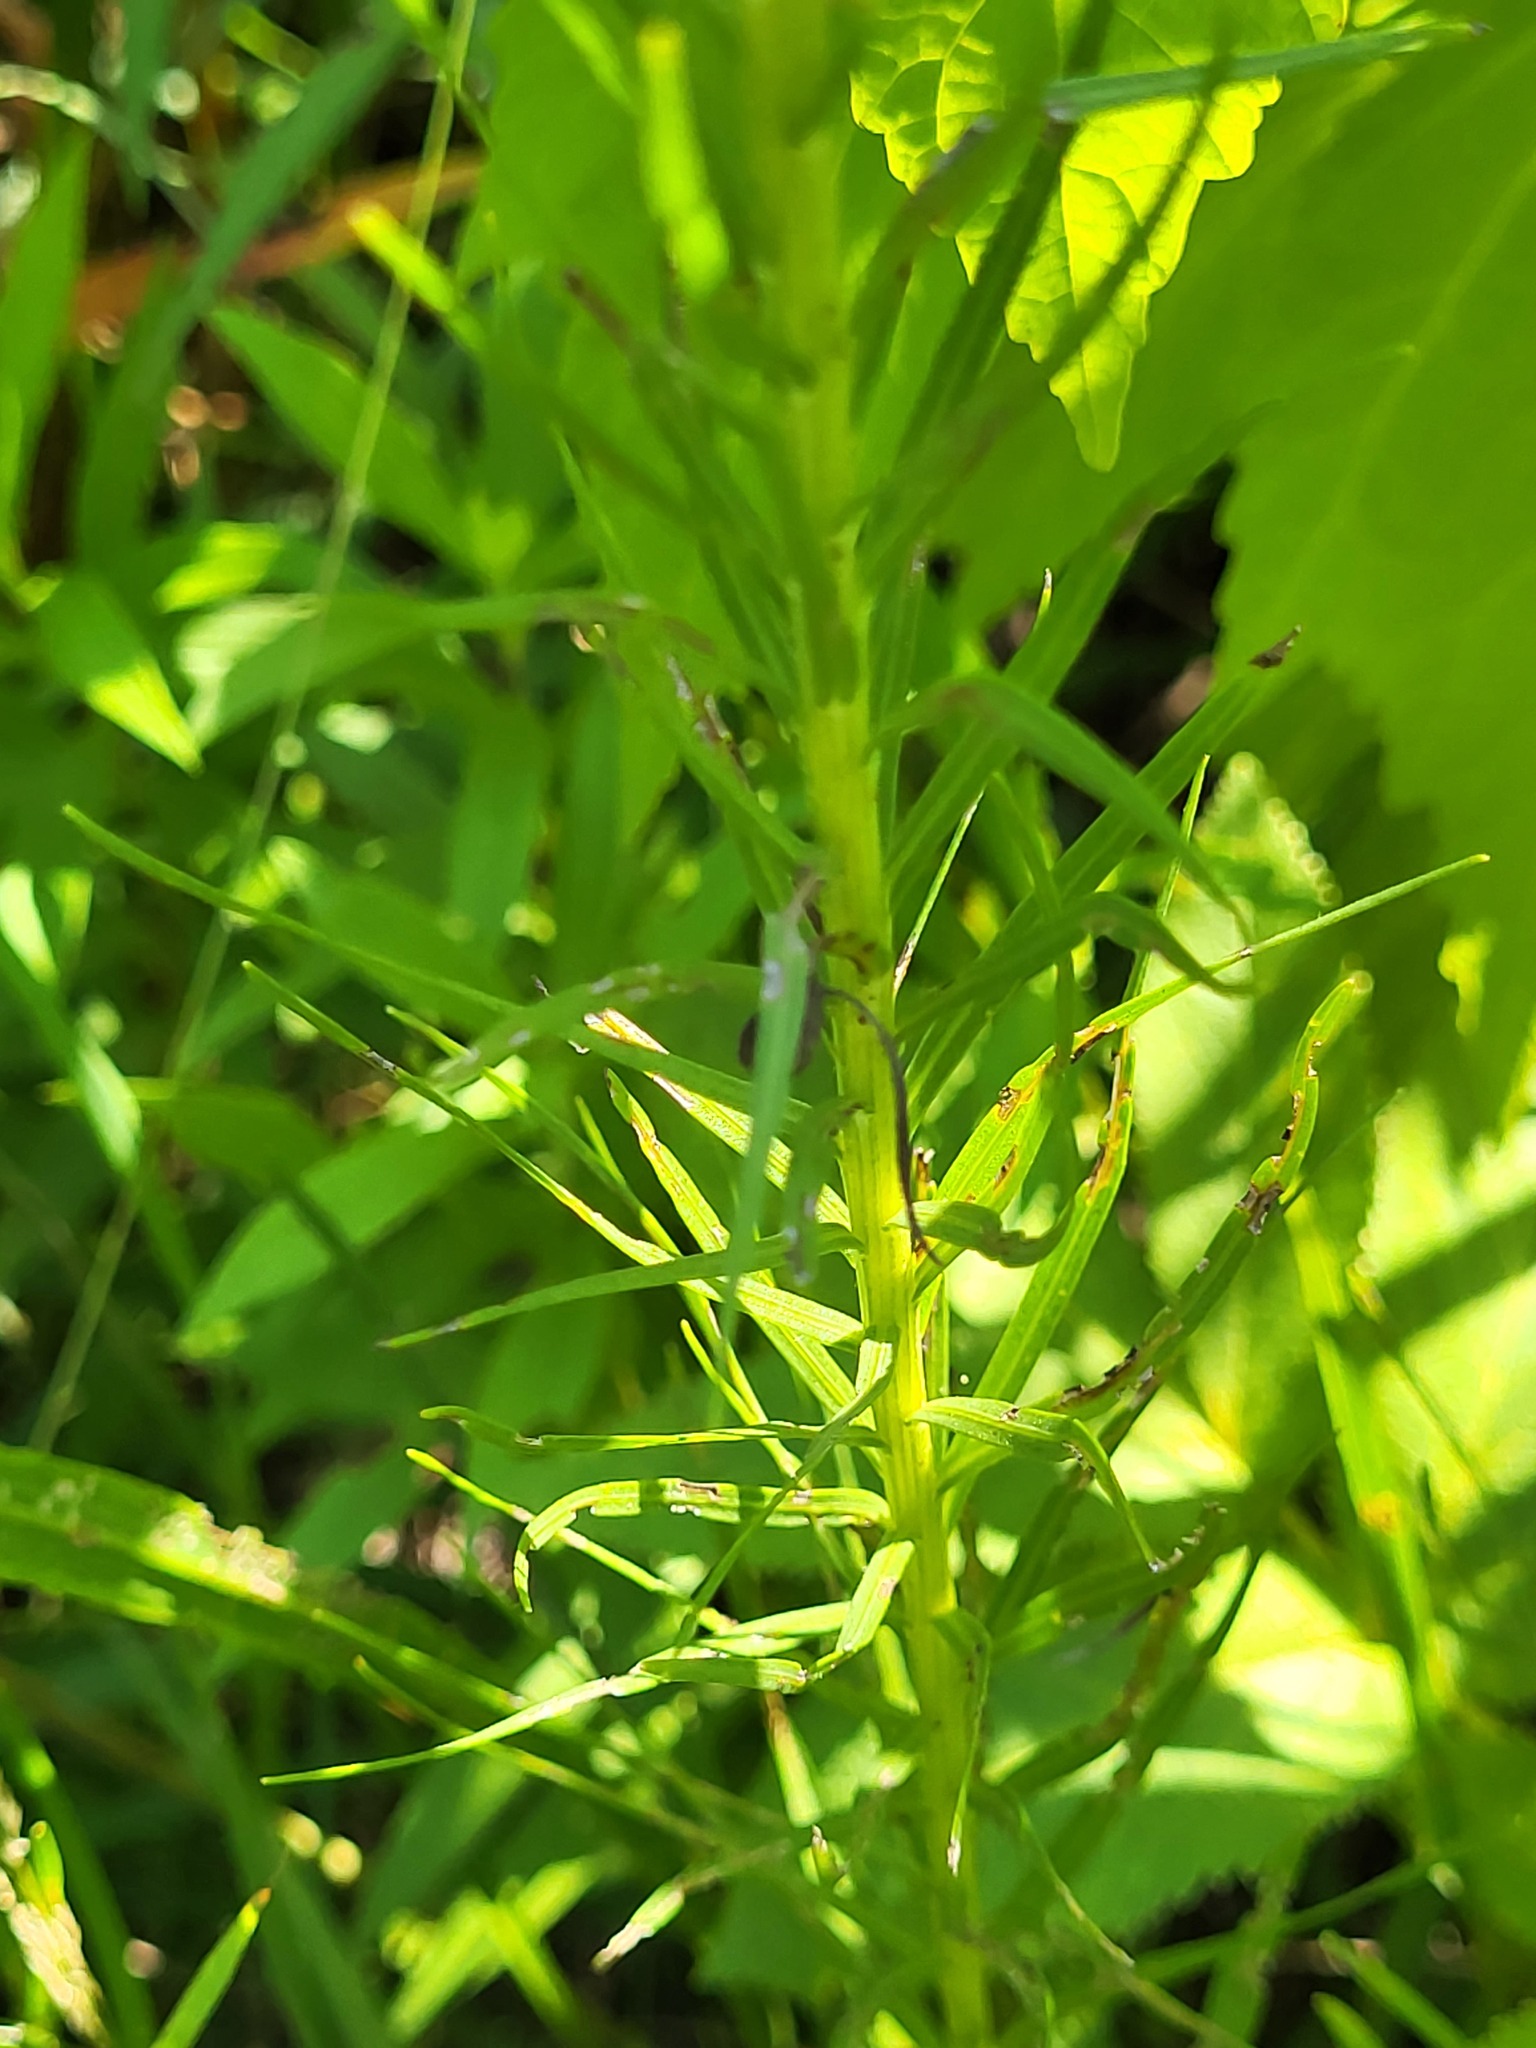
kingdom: Plantae
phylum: Tracheophyta
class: Magnoliopsida
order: Asterales
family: Asteraceae
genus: Liatris
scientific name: Liatris pycnostachya
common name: Cattail gayfeather
